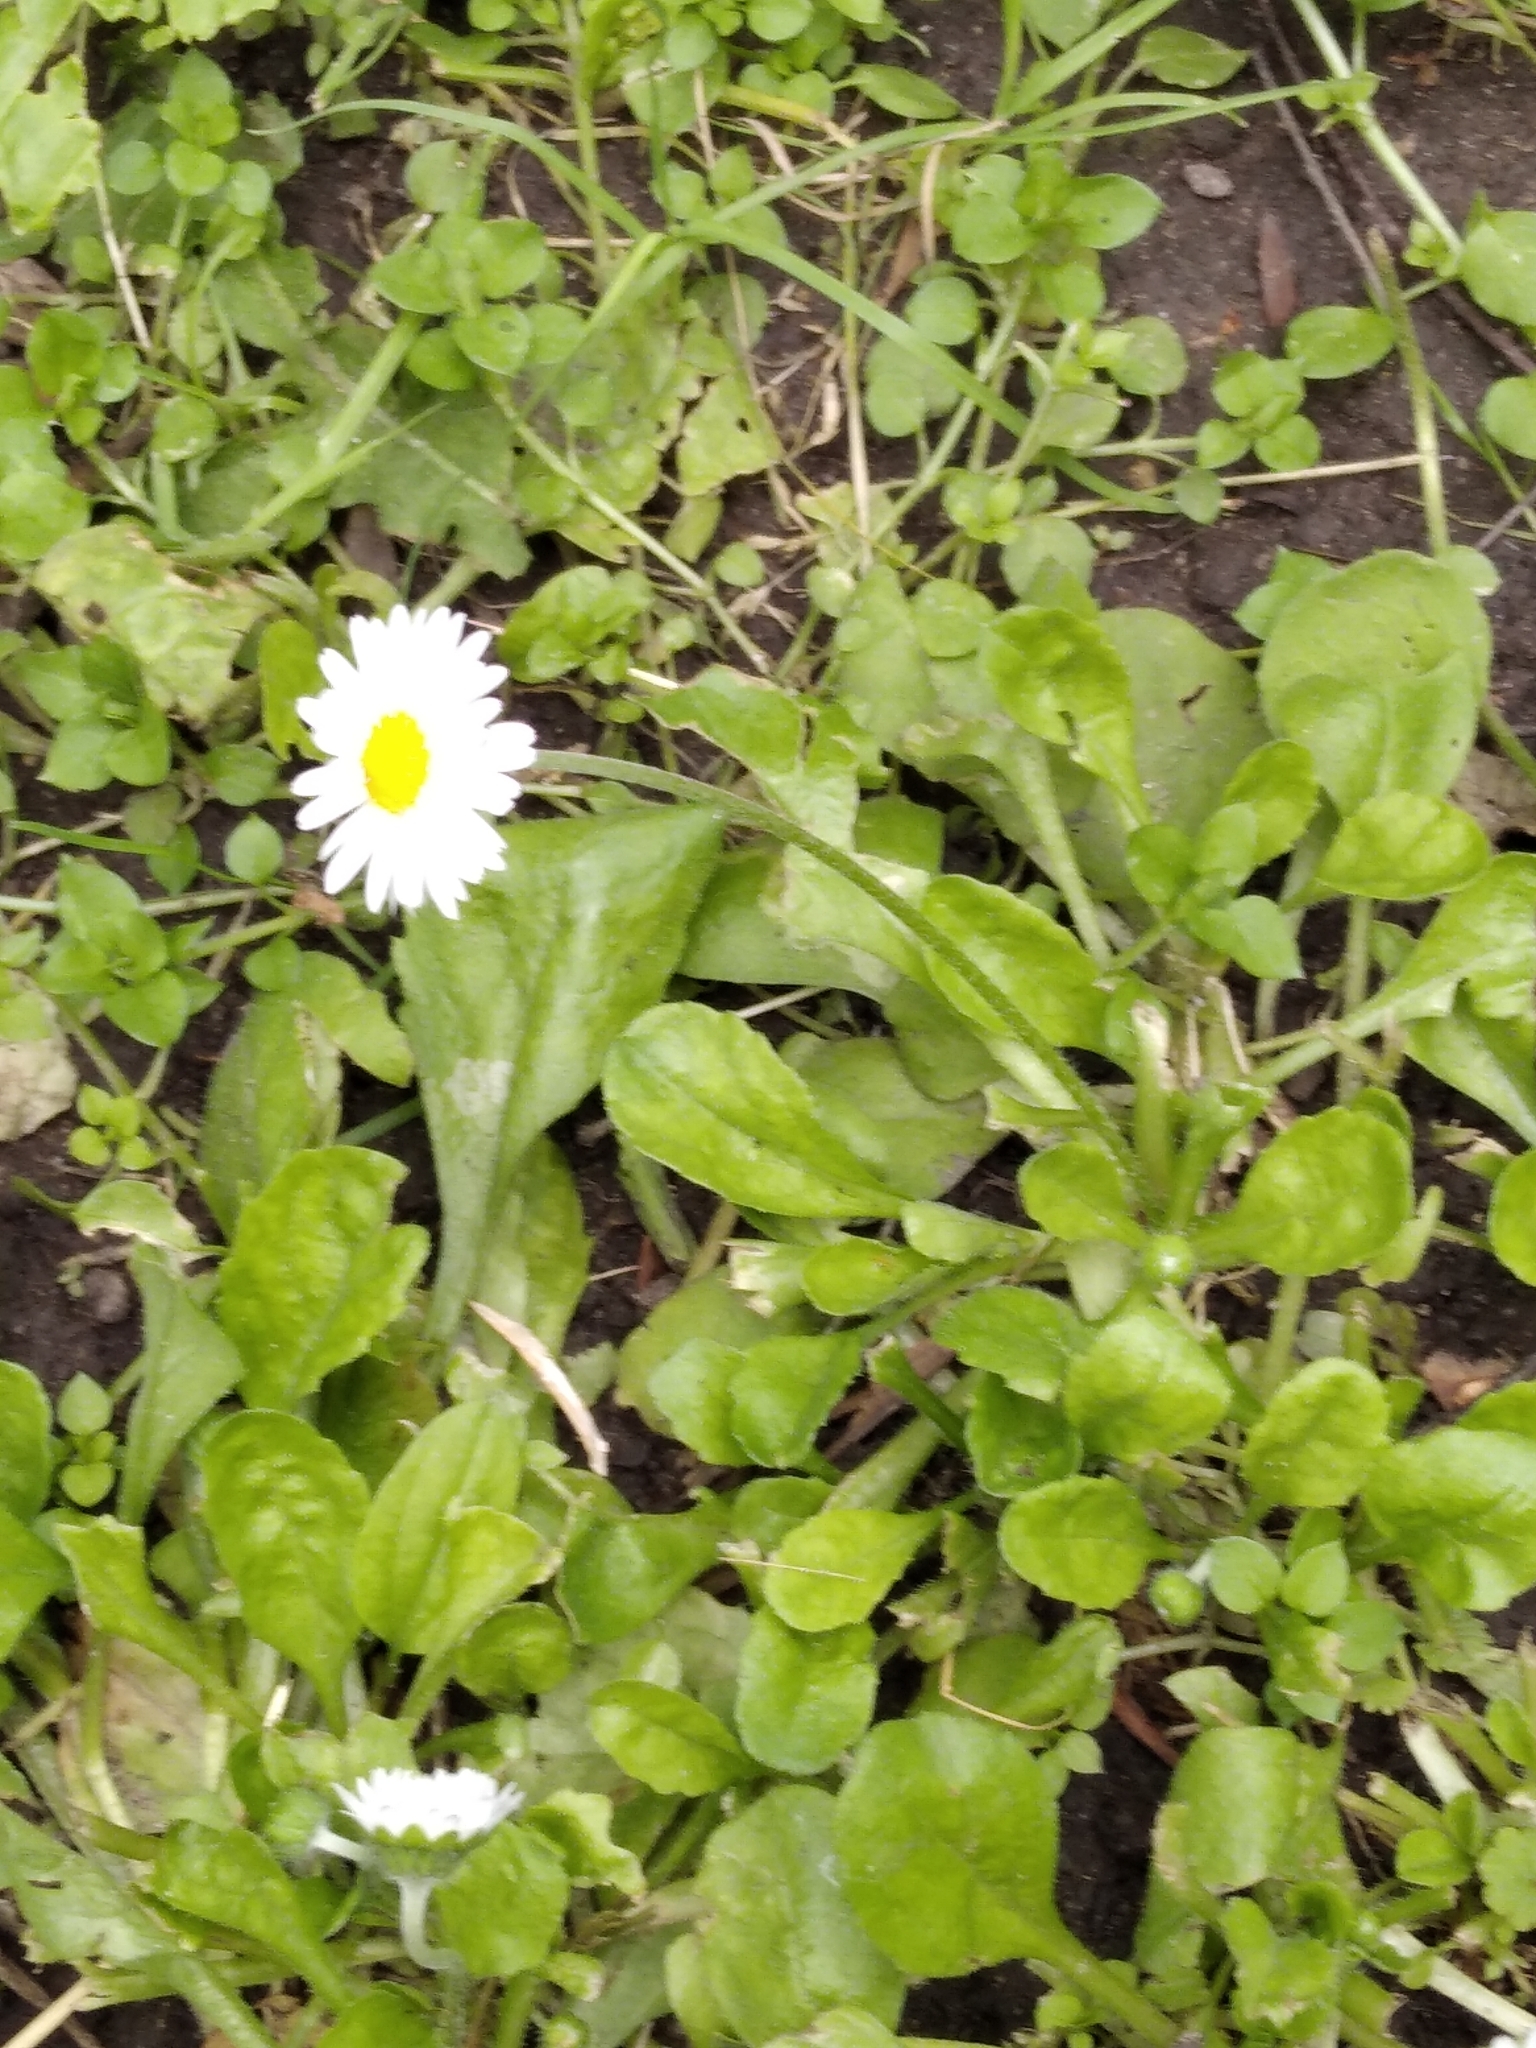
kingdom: Plantae
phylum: Tracheophyta
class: Magnoliopsida
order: Asterales
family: Asteraceae
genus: Bellis
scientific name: Bellis perennis
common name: Lawndaisy
